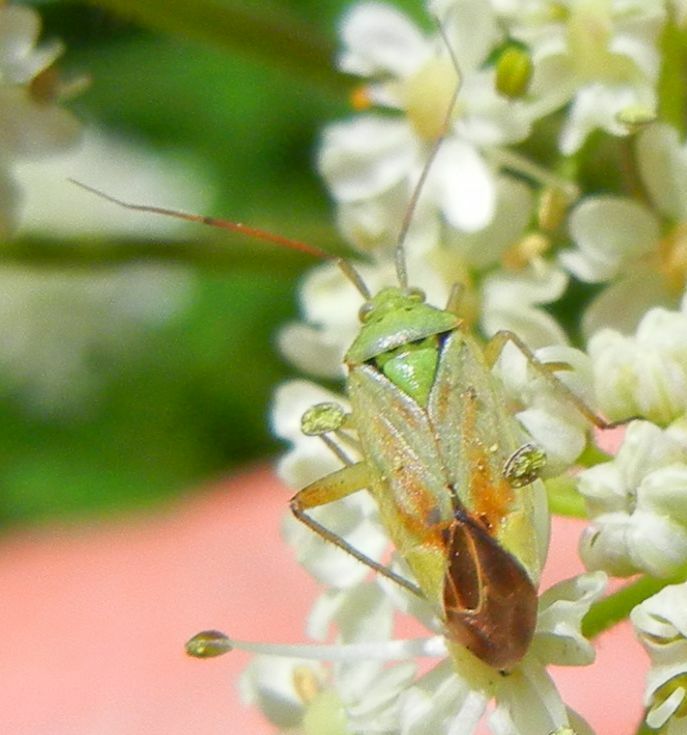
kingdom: Animalia
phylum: Arthropoda
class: Insecta
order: Hemiptera
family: Miridae
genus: Closterotomus
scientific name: Closterotomus norvegicus
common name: Plant bug
